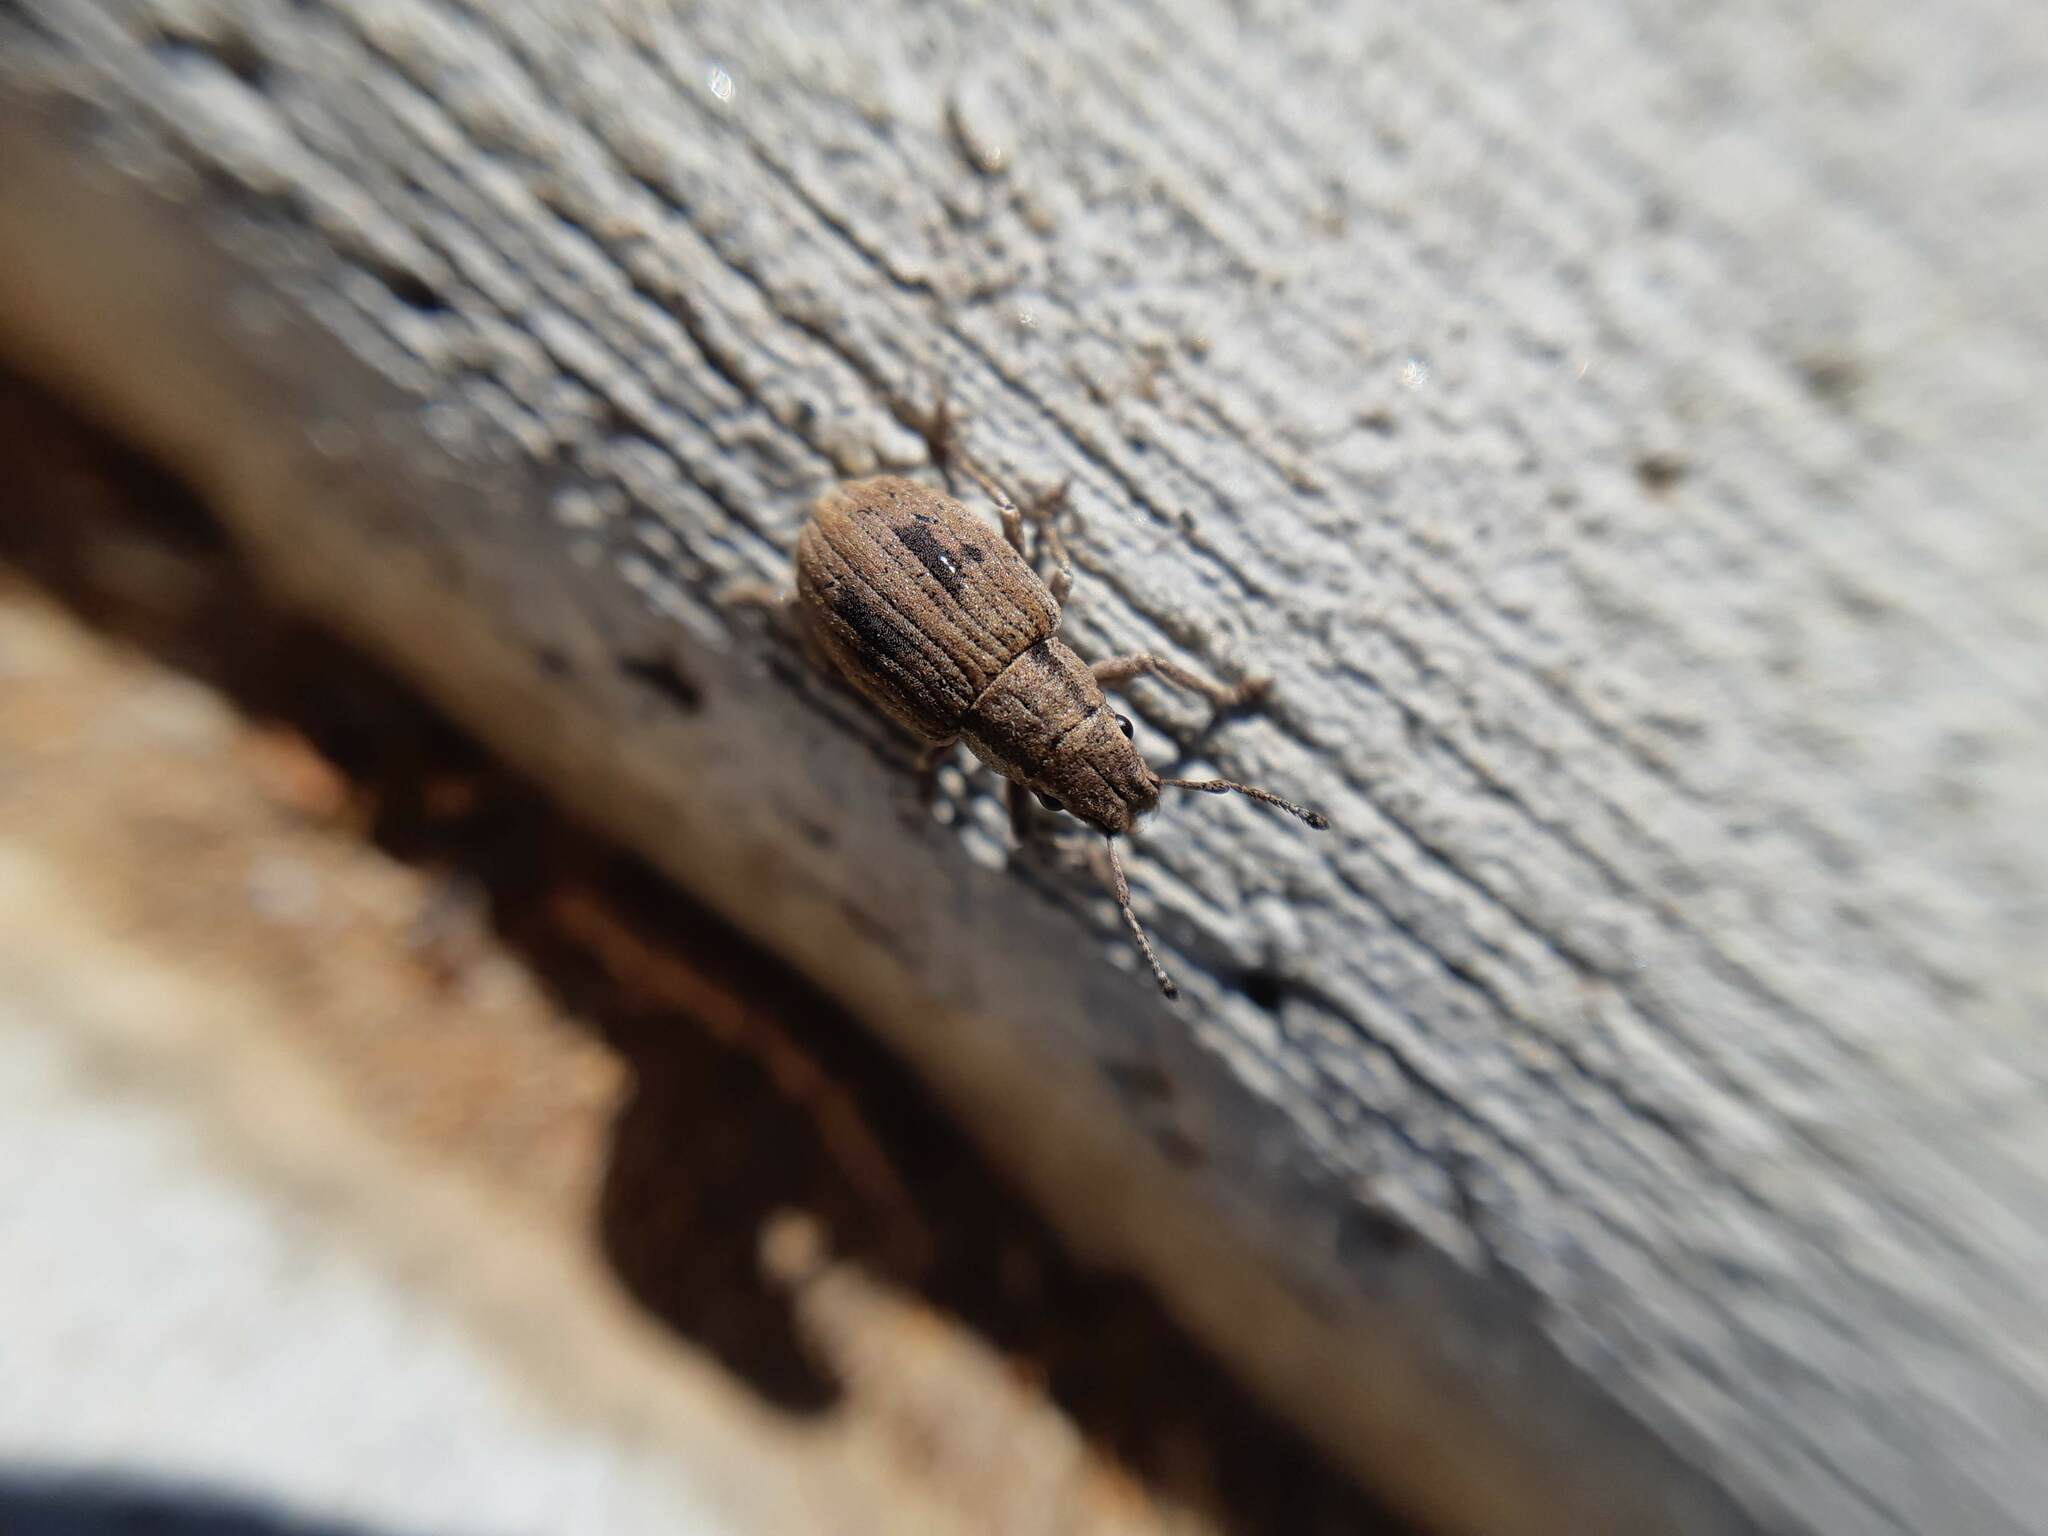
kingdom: Animalia
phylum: Arthropoda
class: Insecta
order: Coleoptera
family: Curculionidae
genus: Eurymetopus
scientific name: Eurymetopus birabeni
